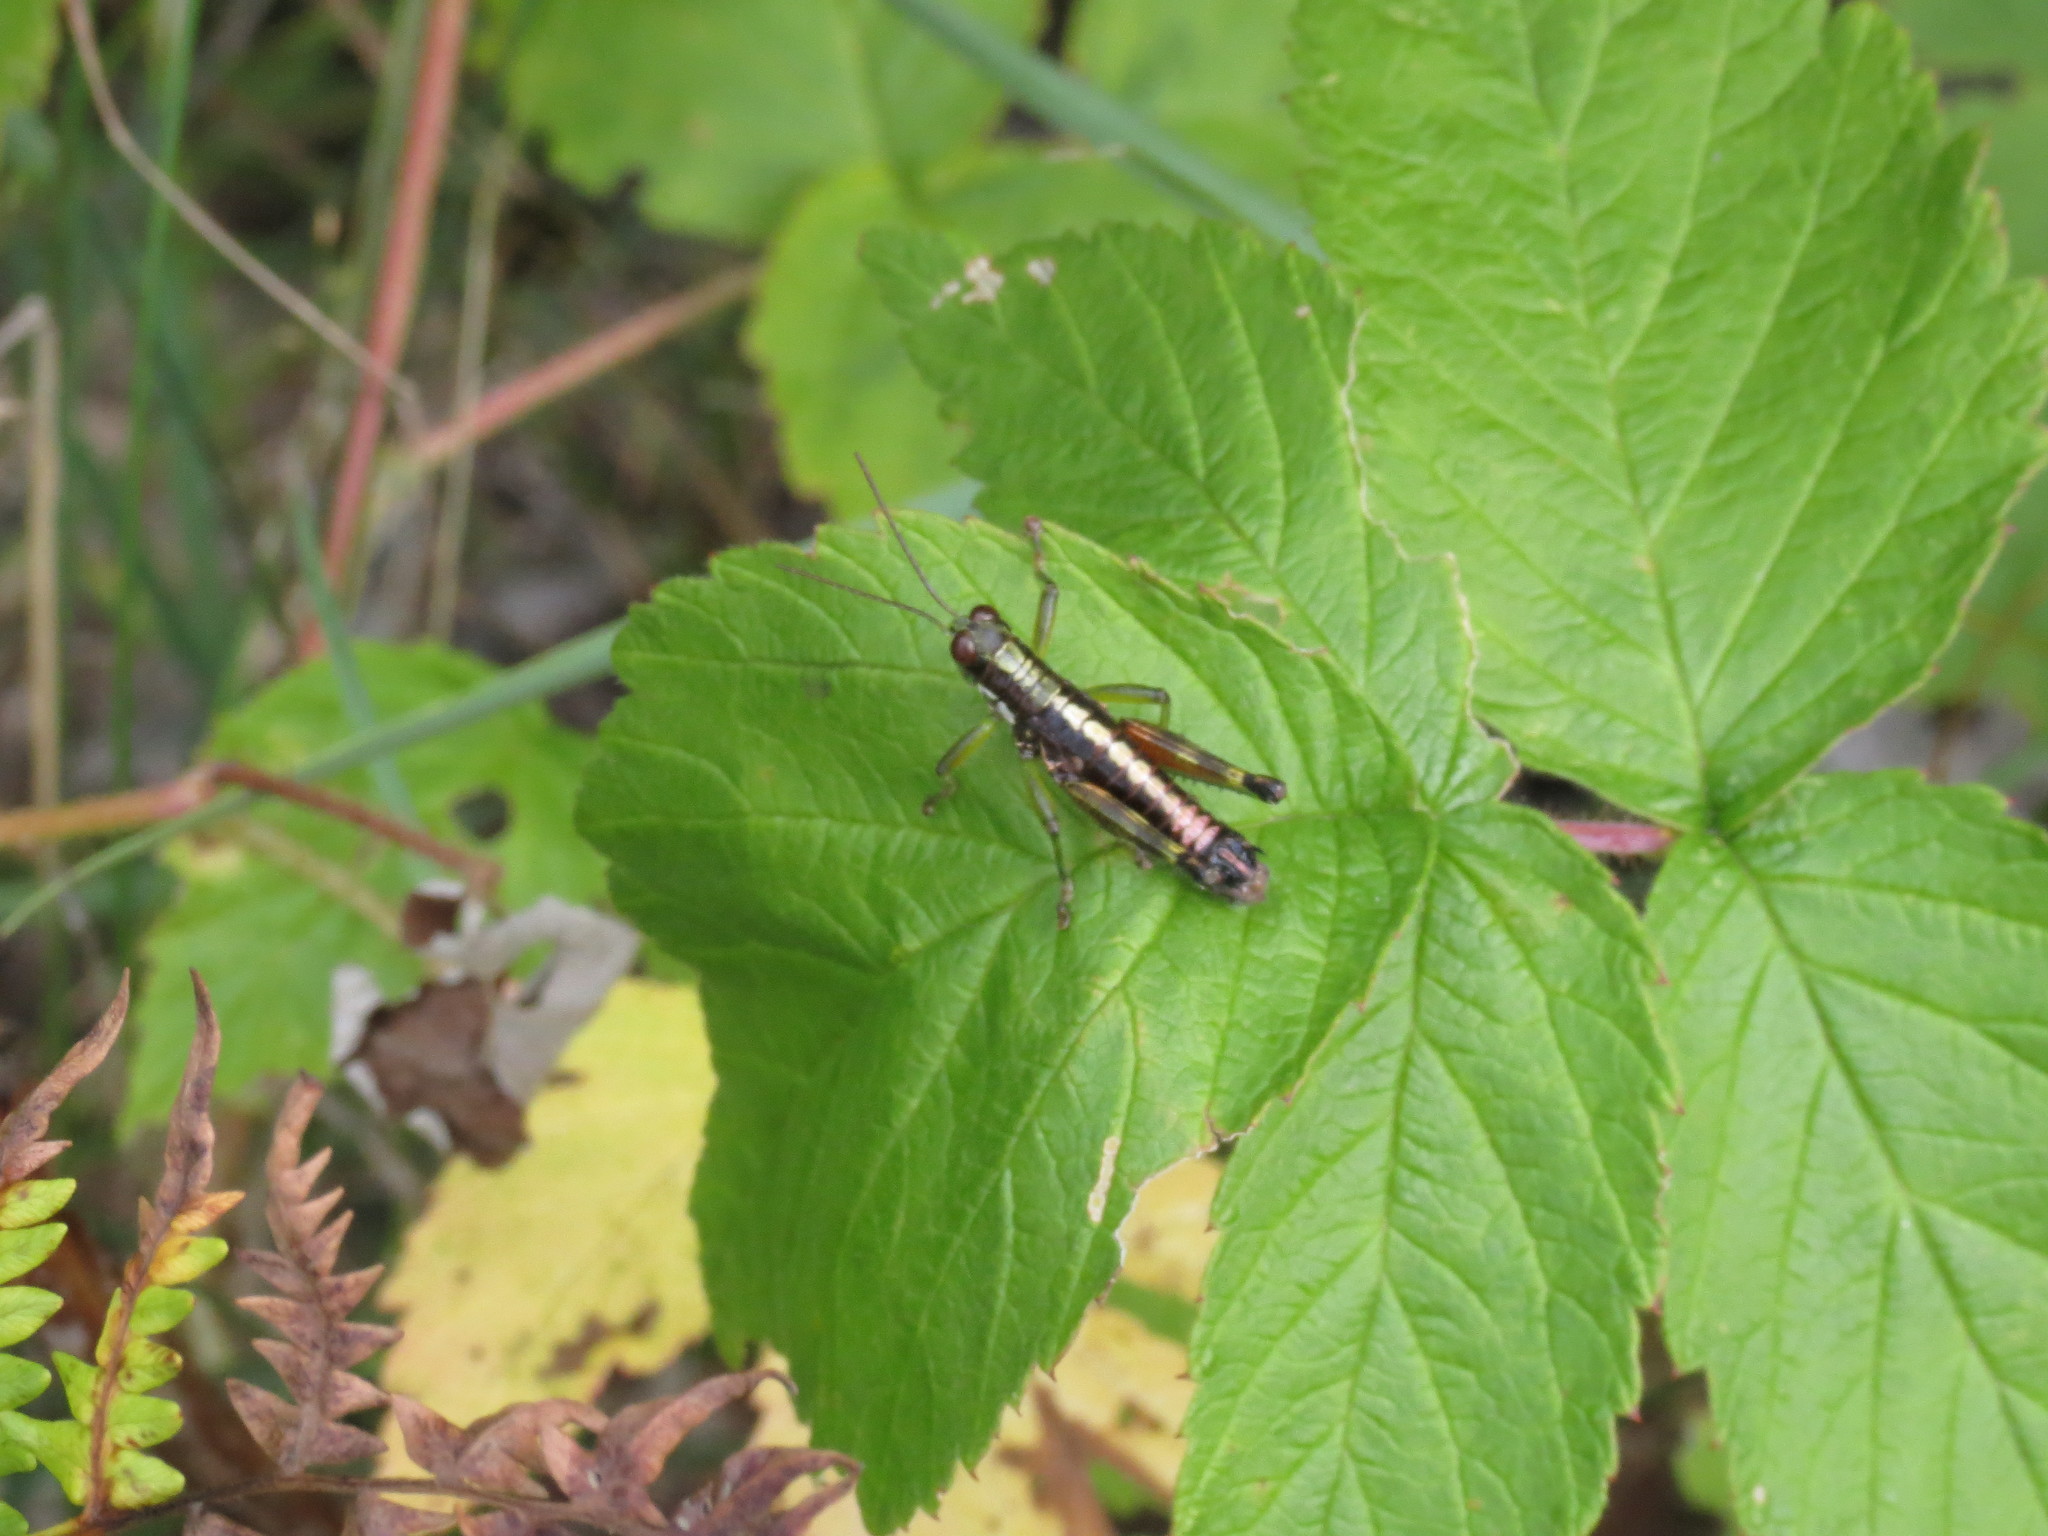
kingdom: Animalia
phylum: Arthropoda
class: Insecta
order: Orthoptera
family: Acrididae
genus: Booneacris
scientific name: Booneacris glacialis
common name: Wingless mountain grasshopper
